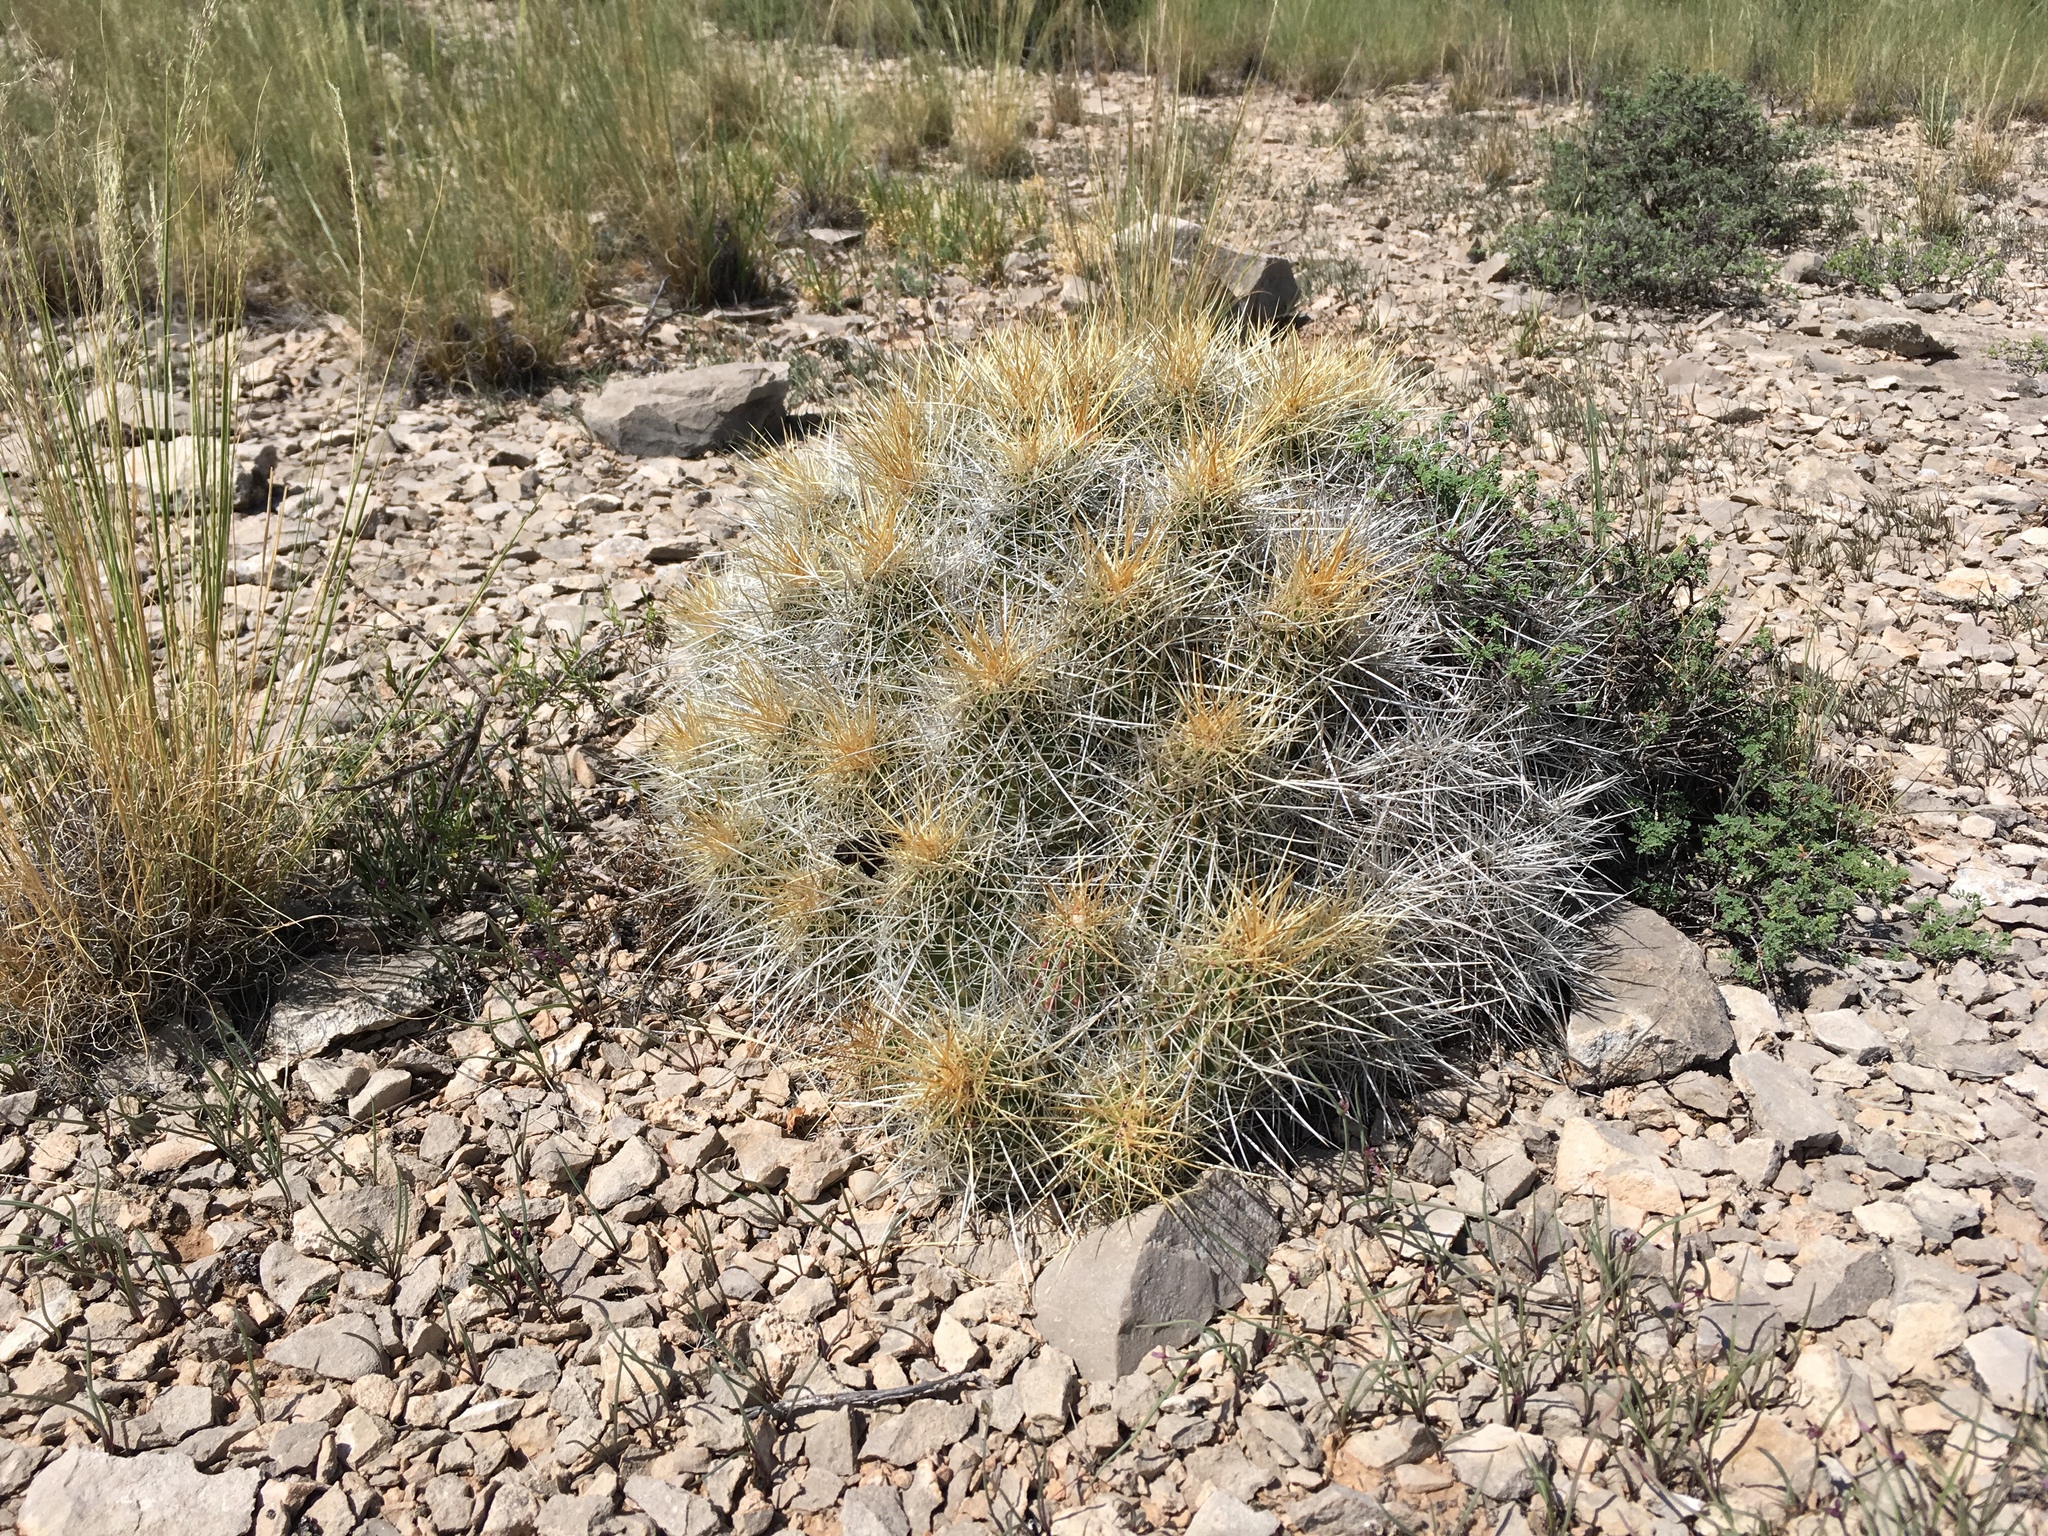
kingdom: Plantae
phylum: Tracheophyta
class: Magnoliopsida
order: Caryophyllales
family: Cactaceae
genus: Echinocereus
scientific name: Echinocereus stramineus
